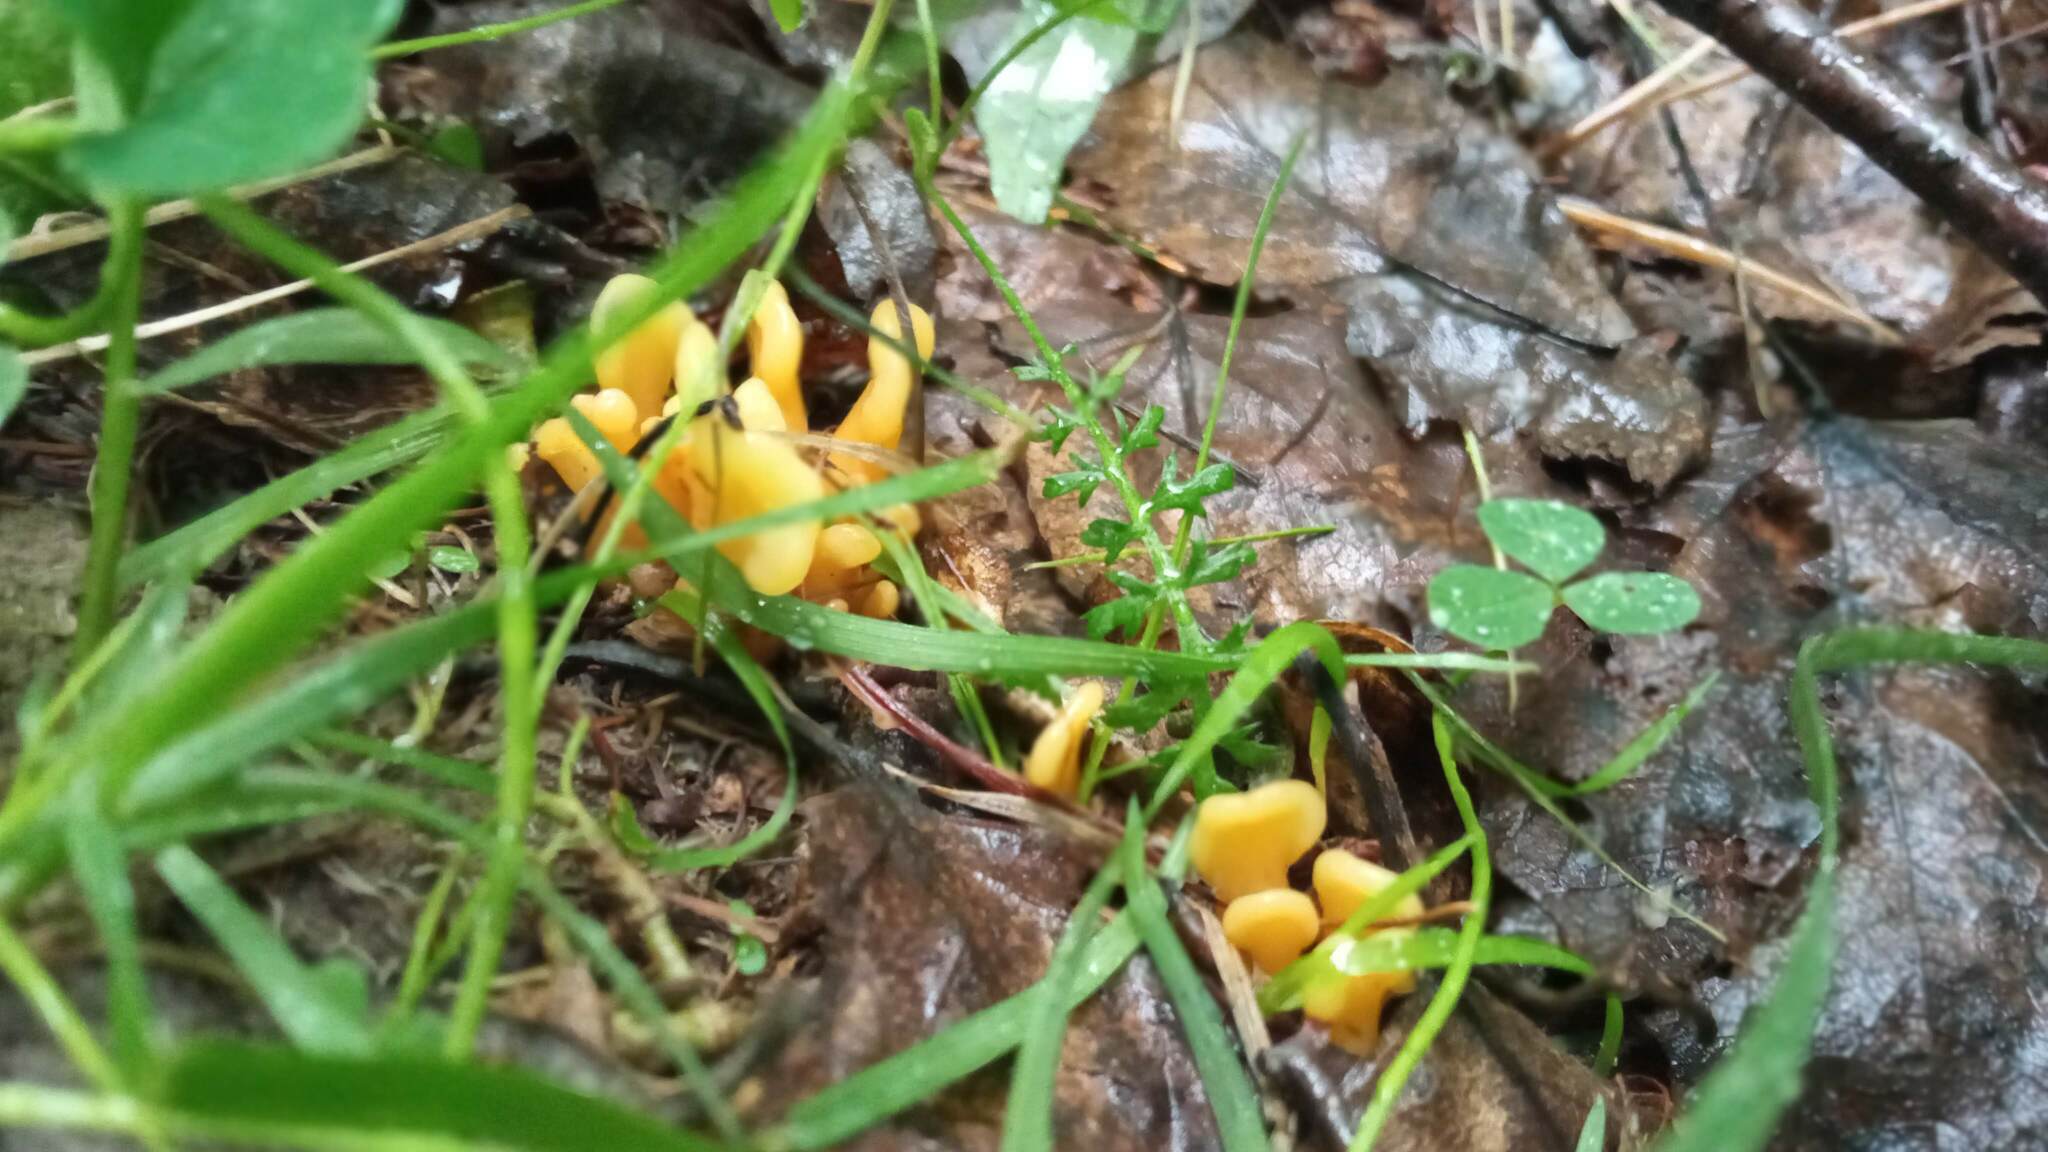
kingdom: Fungi
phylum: Ascomycota
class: Leotiomycetes
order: Rhytismatales
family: Cudoniaceae
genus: Spathularia
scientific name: Spathularia flavida
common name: Yellow fan
